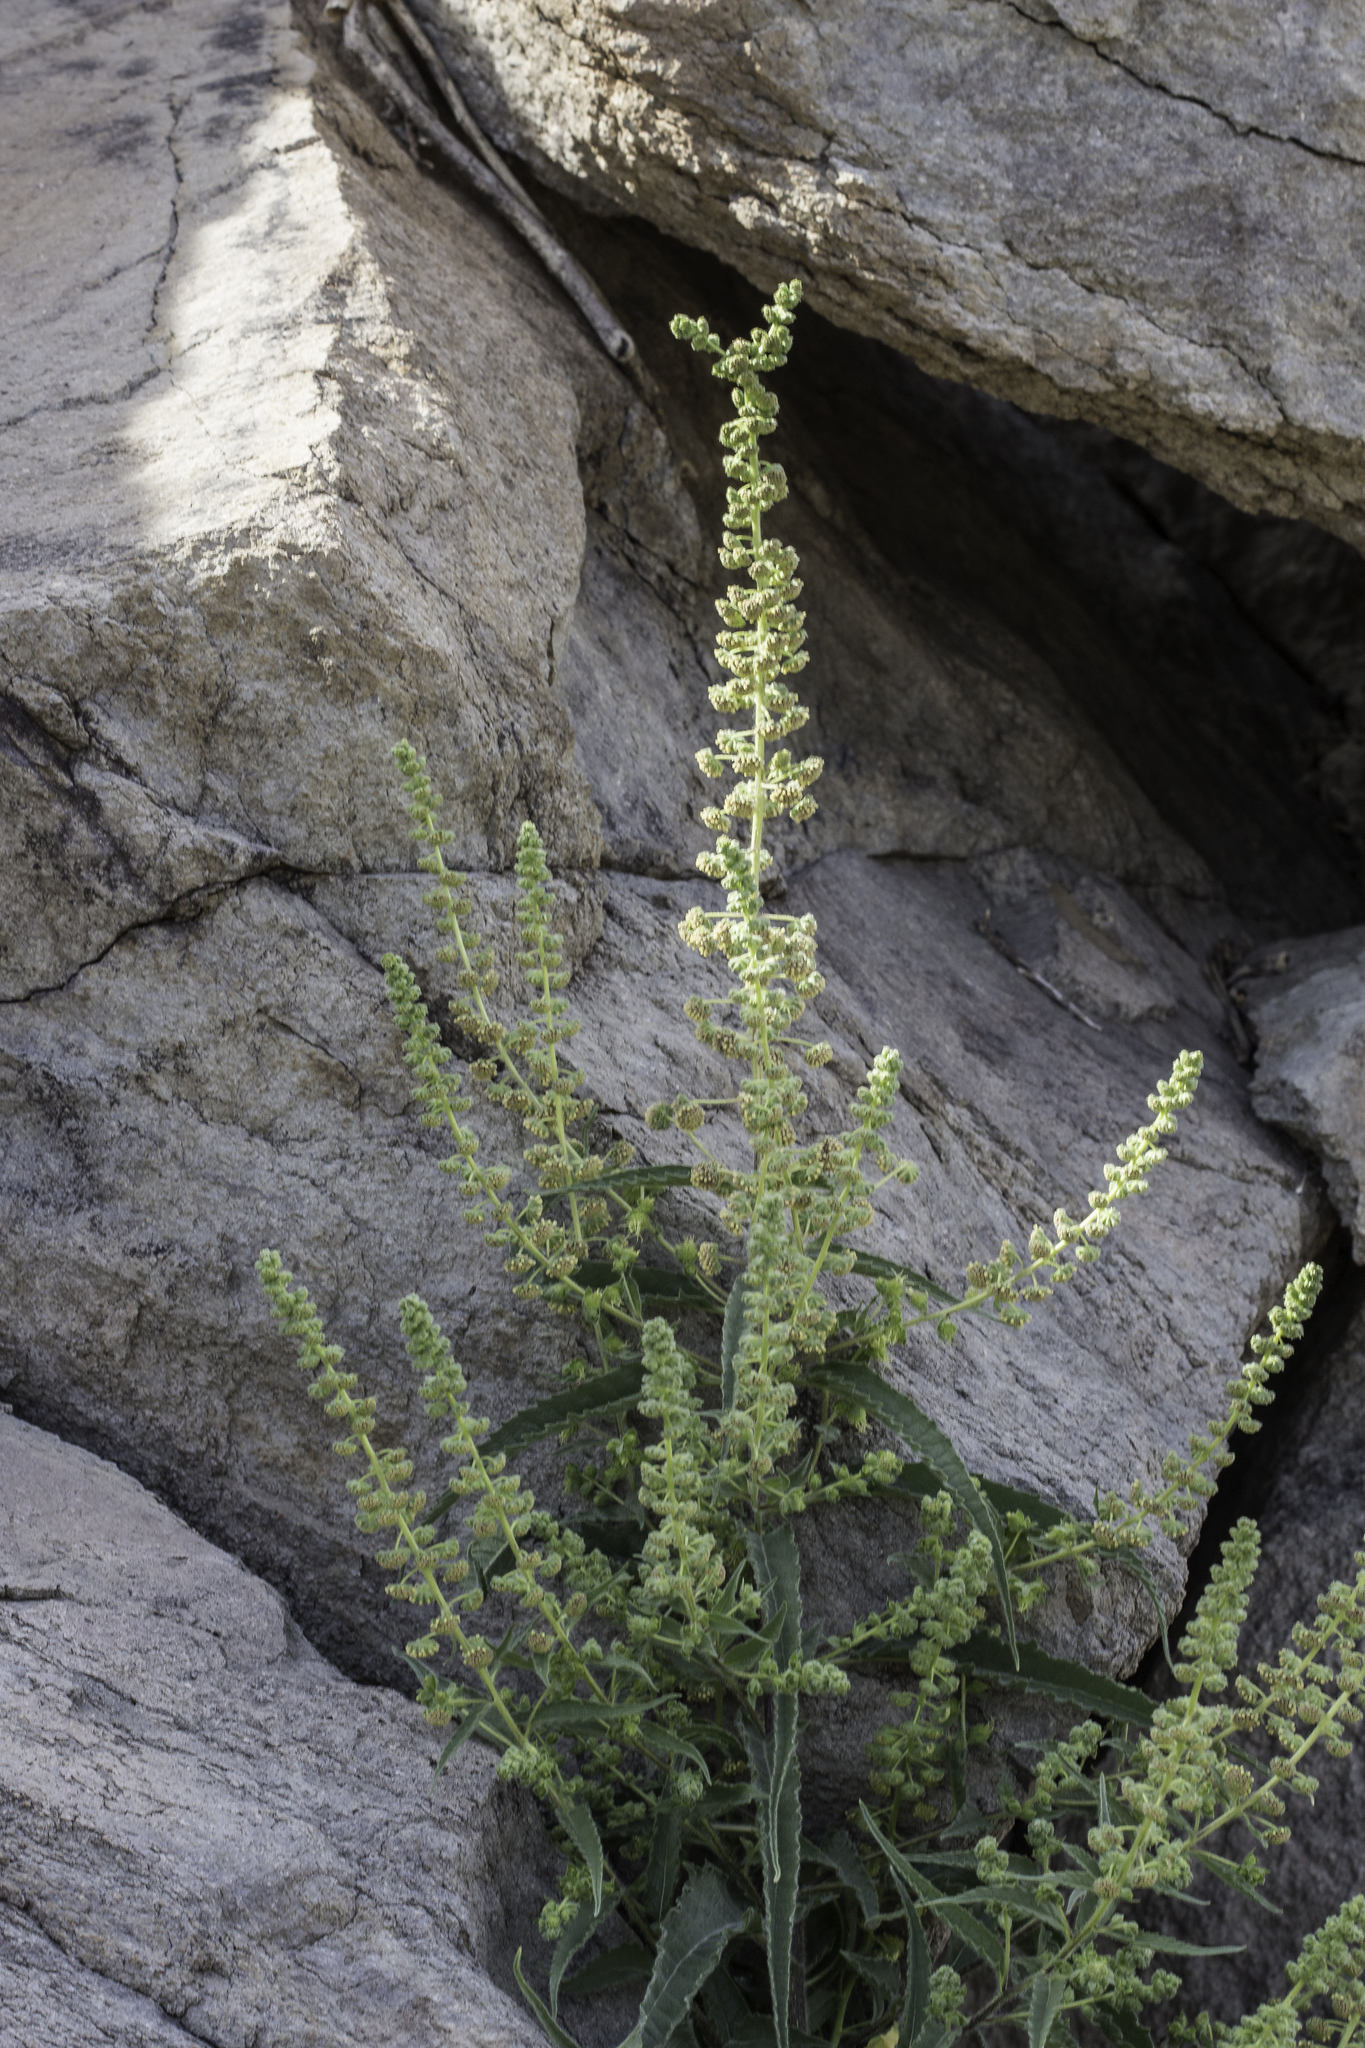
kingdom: Plantae
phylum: Tracheophyta
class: Magnoliopsida
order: Asterales
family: Asteraceae
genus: Ambrosia
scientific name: Ambrosia ambrosioides
